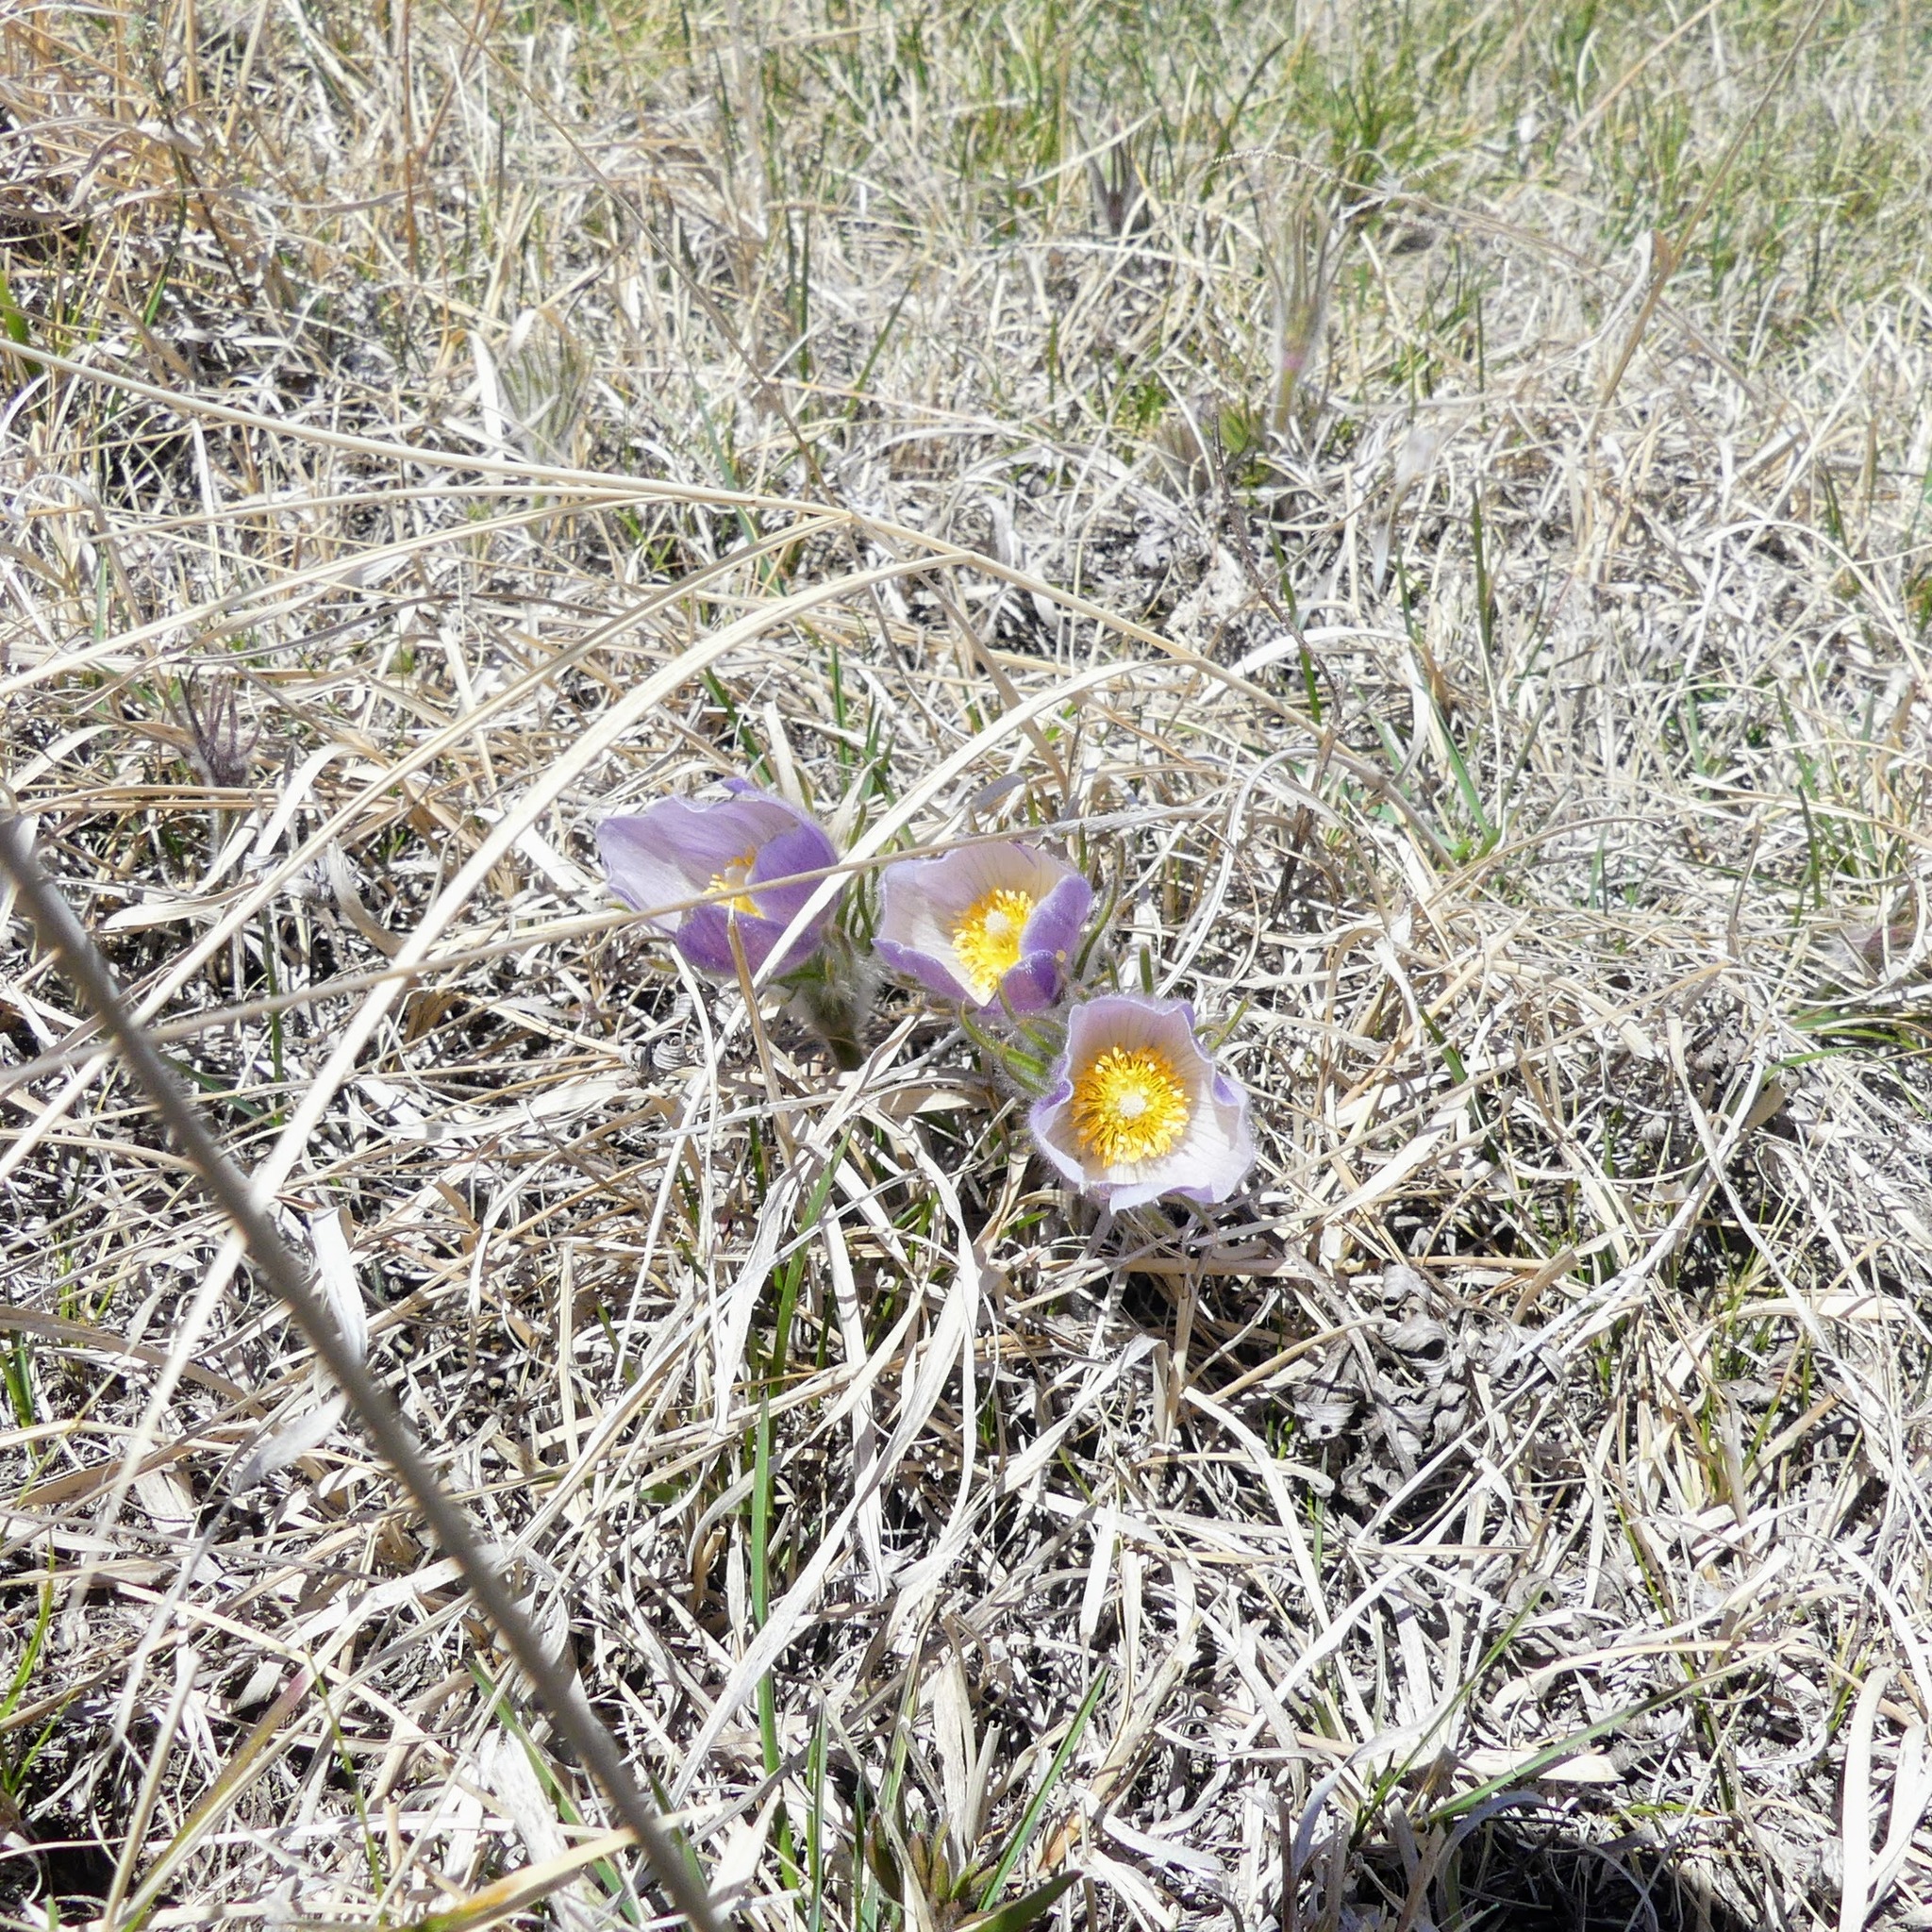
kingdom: Plantae
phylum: Tracheophyta
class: Magnoliopsida
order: Ranunculales
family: Ranunculaceae
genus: Pulsatilla
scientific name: Pulsatilla nuttalliana
